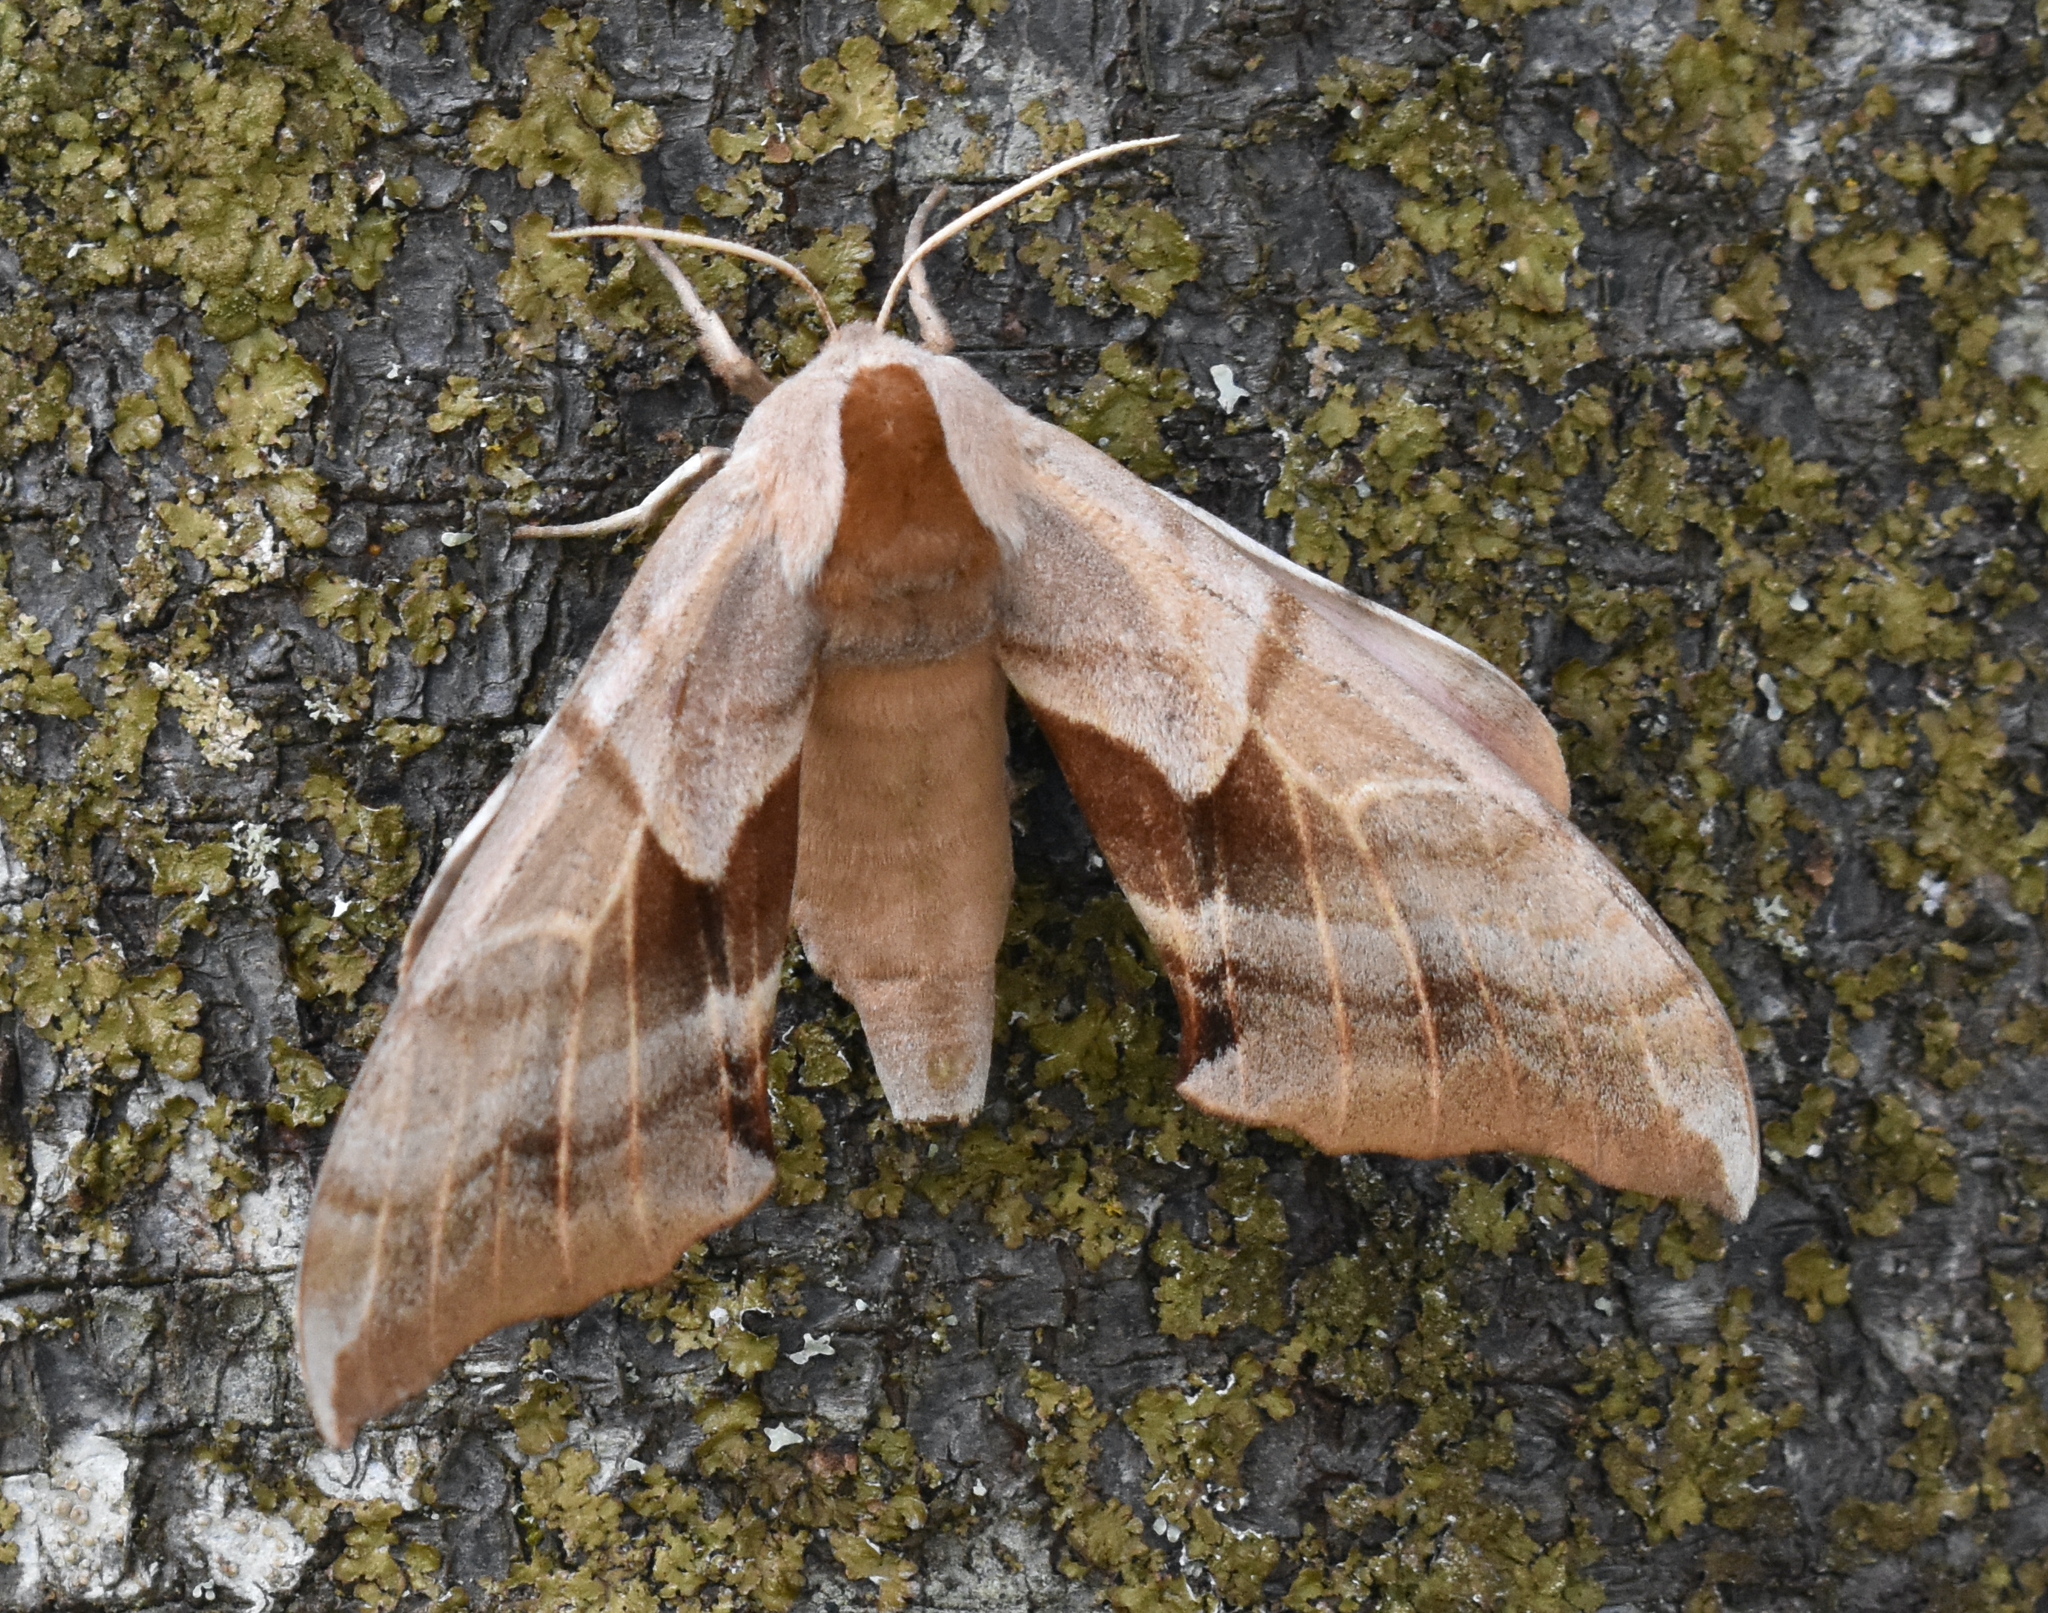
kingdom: Animalia
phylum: Arthropoda
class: Insecta
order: Lepidoptera
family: Sphingidae
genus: Smerinthus
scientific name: Smerinthus cerisyi
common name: Cerisy's sphinx moth
